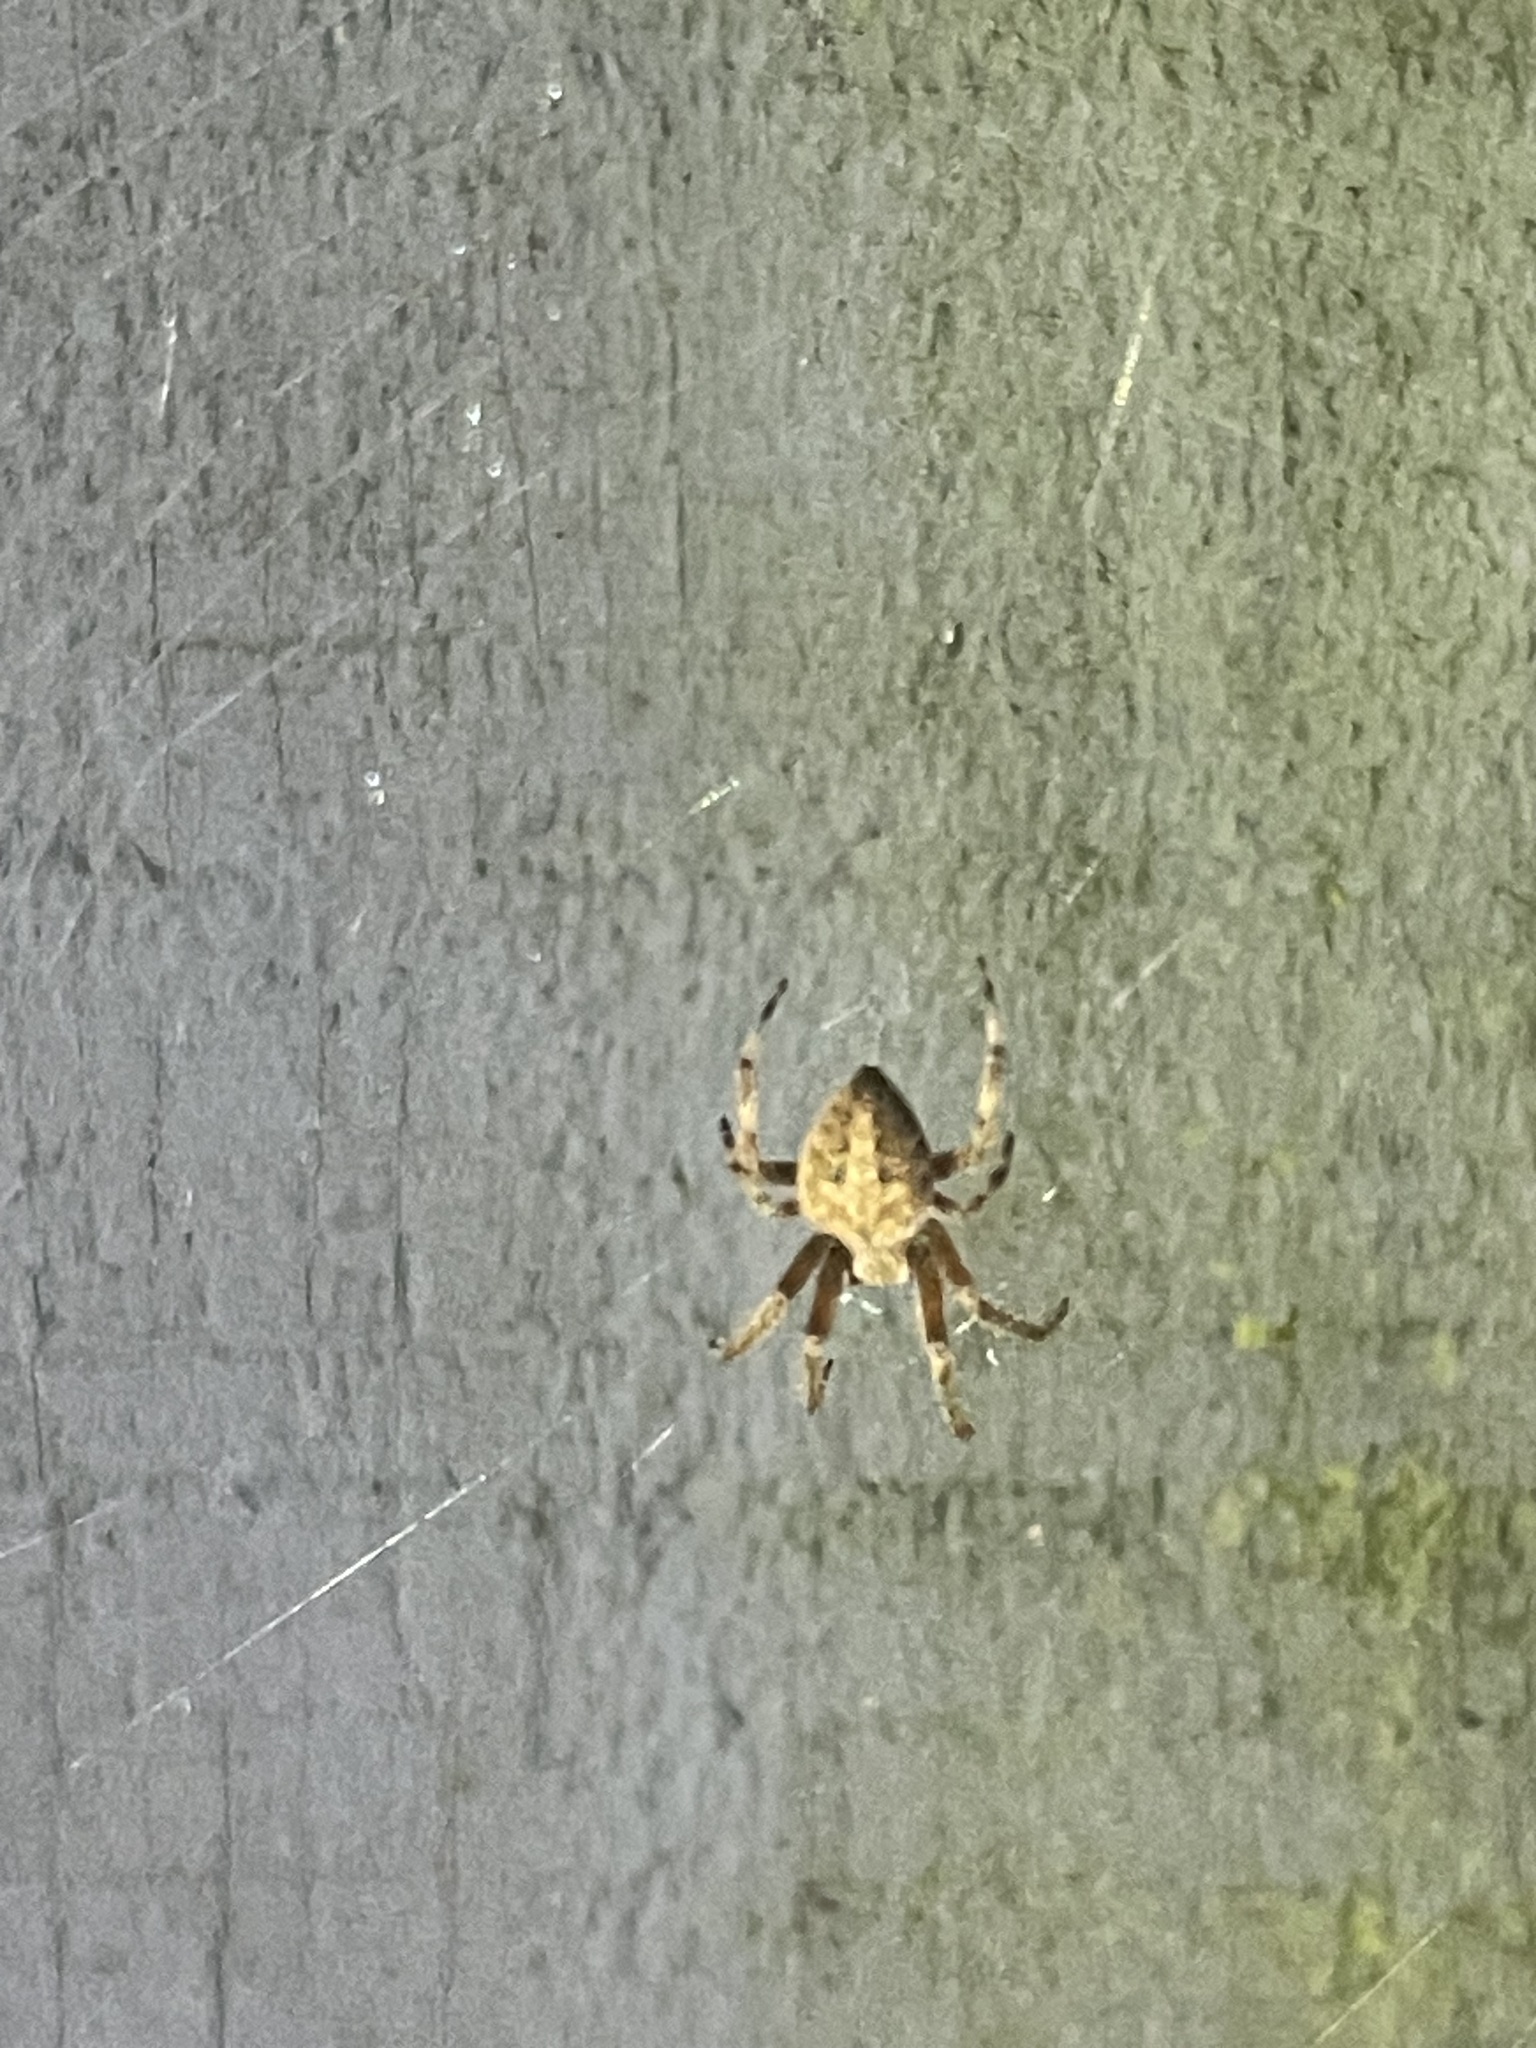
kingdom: Animalia
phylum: Arthropoda
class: Arachnida
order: Araneae
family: Araneidae
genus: Neoscona
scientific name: Neoscona crucifera
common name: Spotted orbweaver
